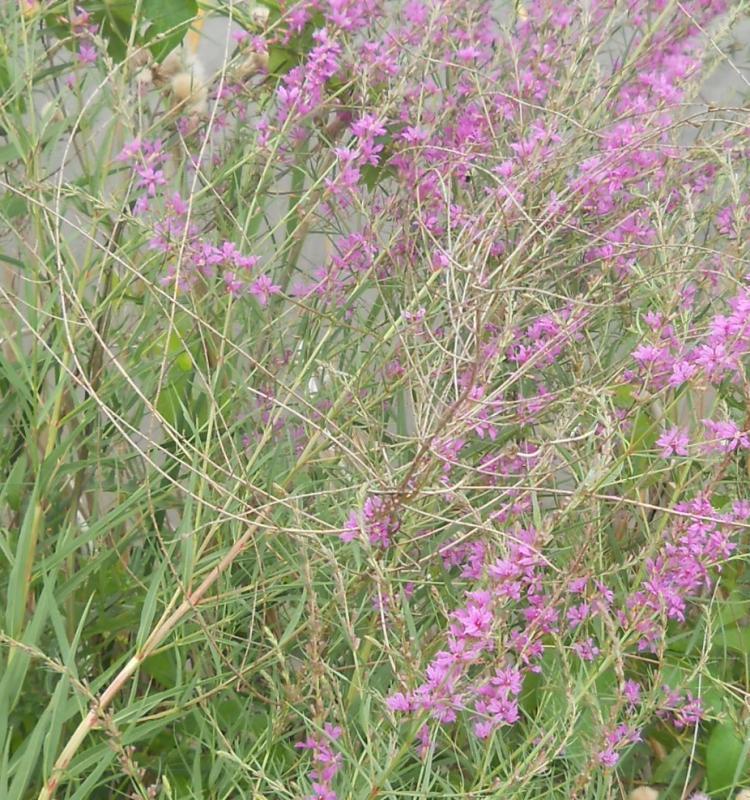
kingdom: Plantae
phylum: Tracheophyta
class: Magnoliopsida
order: Myrtales
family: Lythraceae
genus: Lythrum
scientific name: Lythrum virgatum
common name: European wand loosestrife
